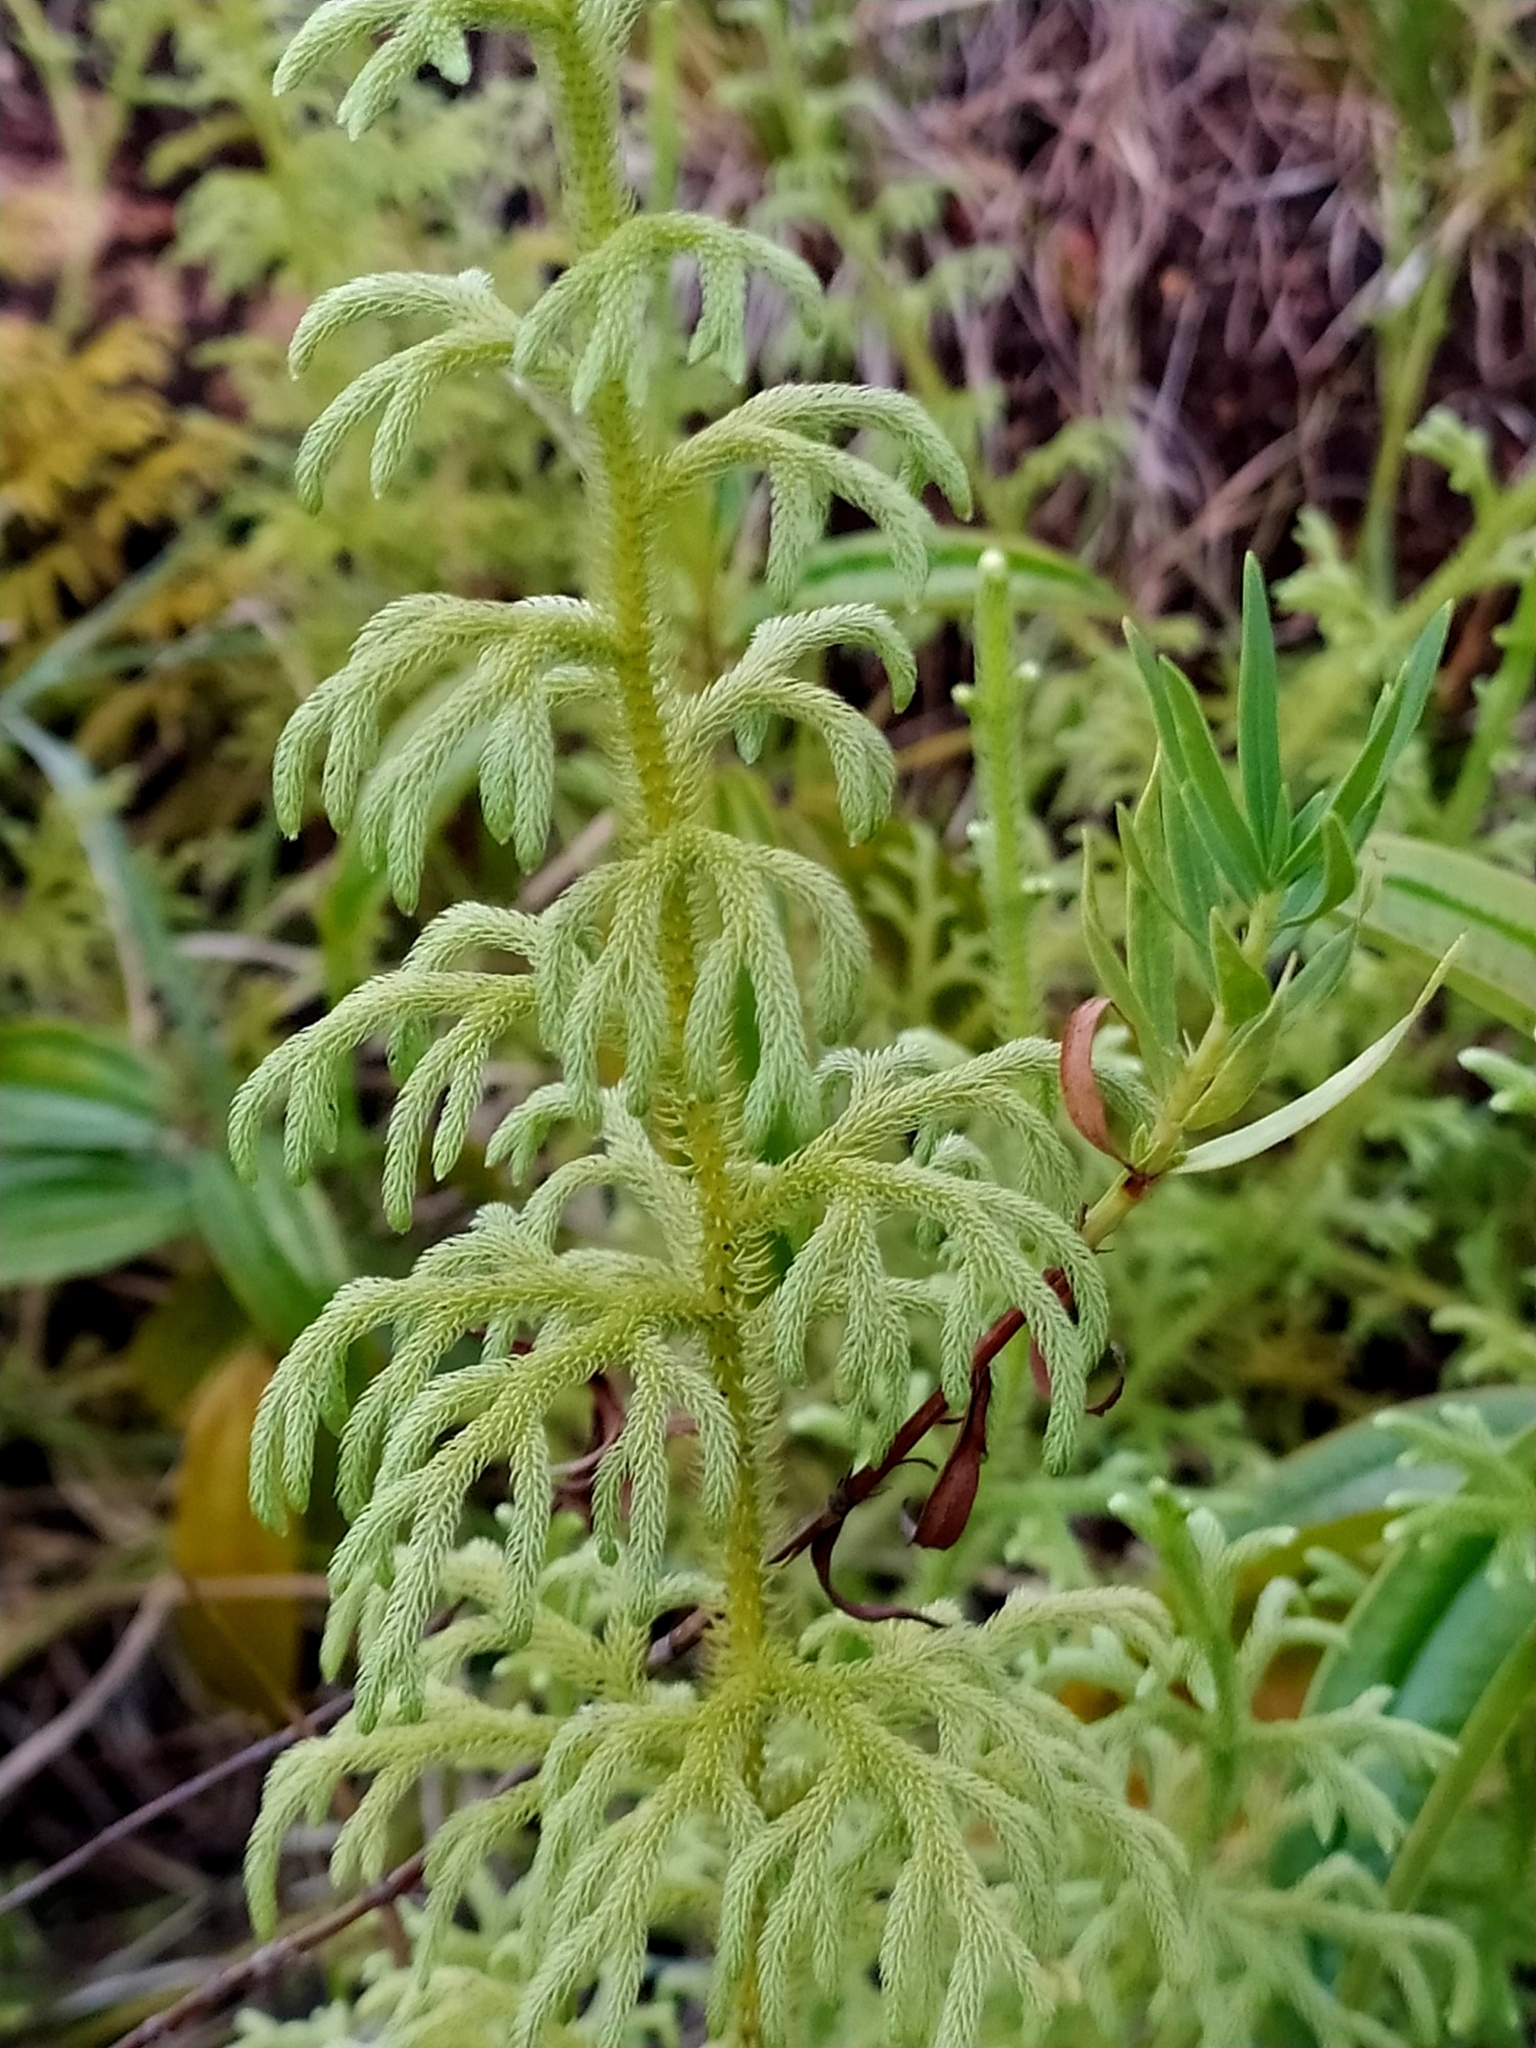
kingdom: Plantae
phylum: Tracheophyta
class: Lycopodiopsida
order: Lycopodiales
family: Lycopodiaceae
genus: Palhinhaea
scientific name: Palhinhaea cernua
